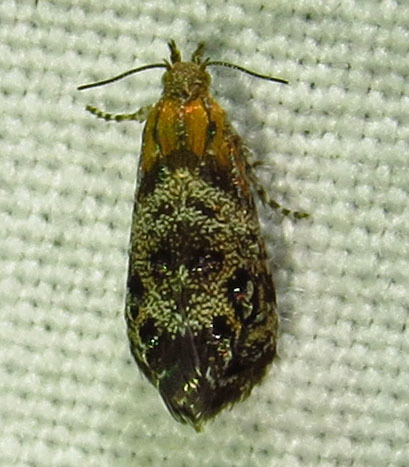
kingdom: Animalia
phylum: Arthropoda
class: Insecta
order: Lepidoptera
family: Choreutidae
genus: Tebenna
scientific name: Tebenna gnaphaliella
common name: Everlasting tebenna moth
